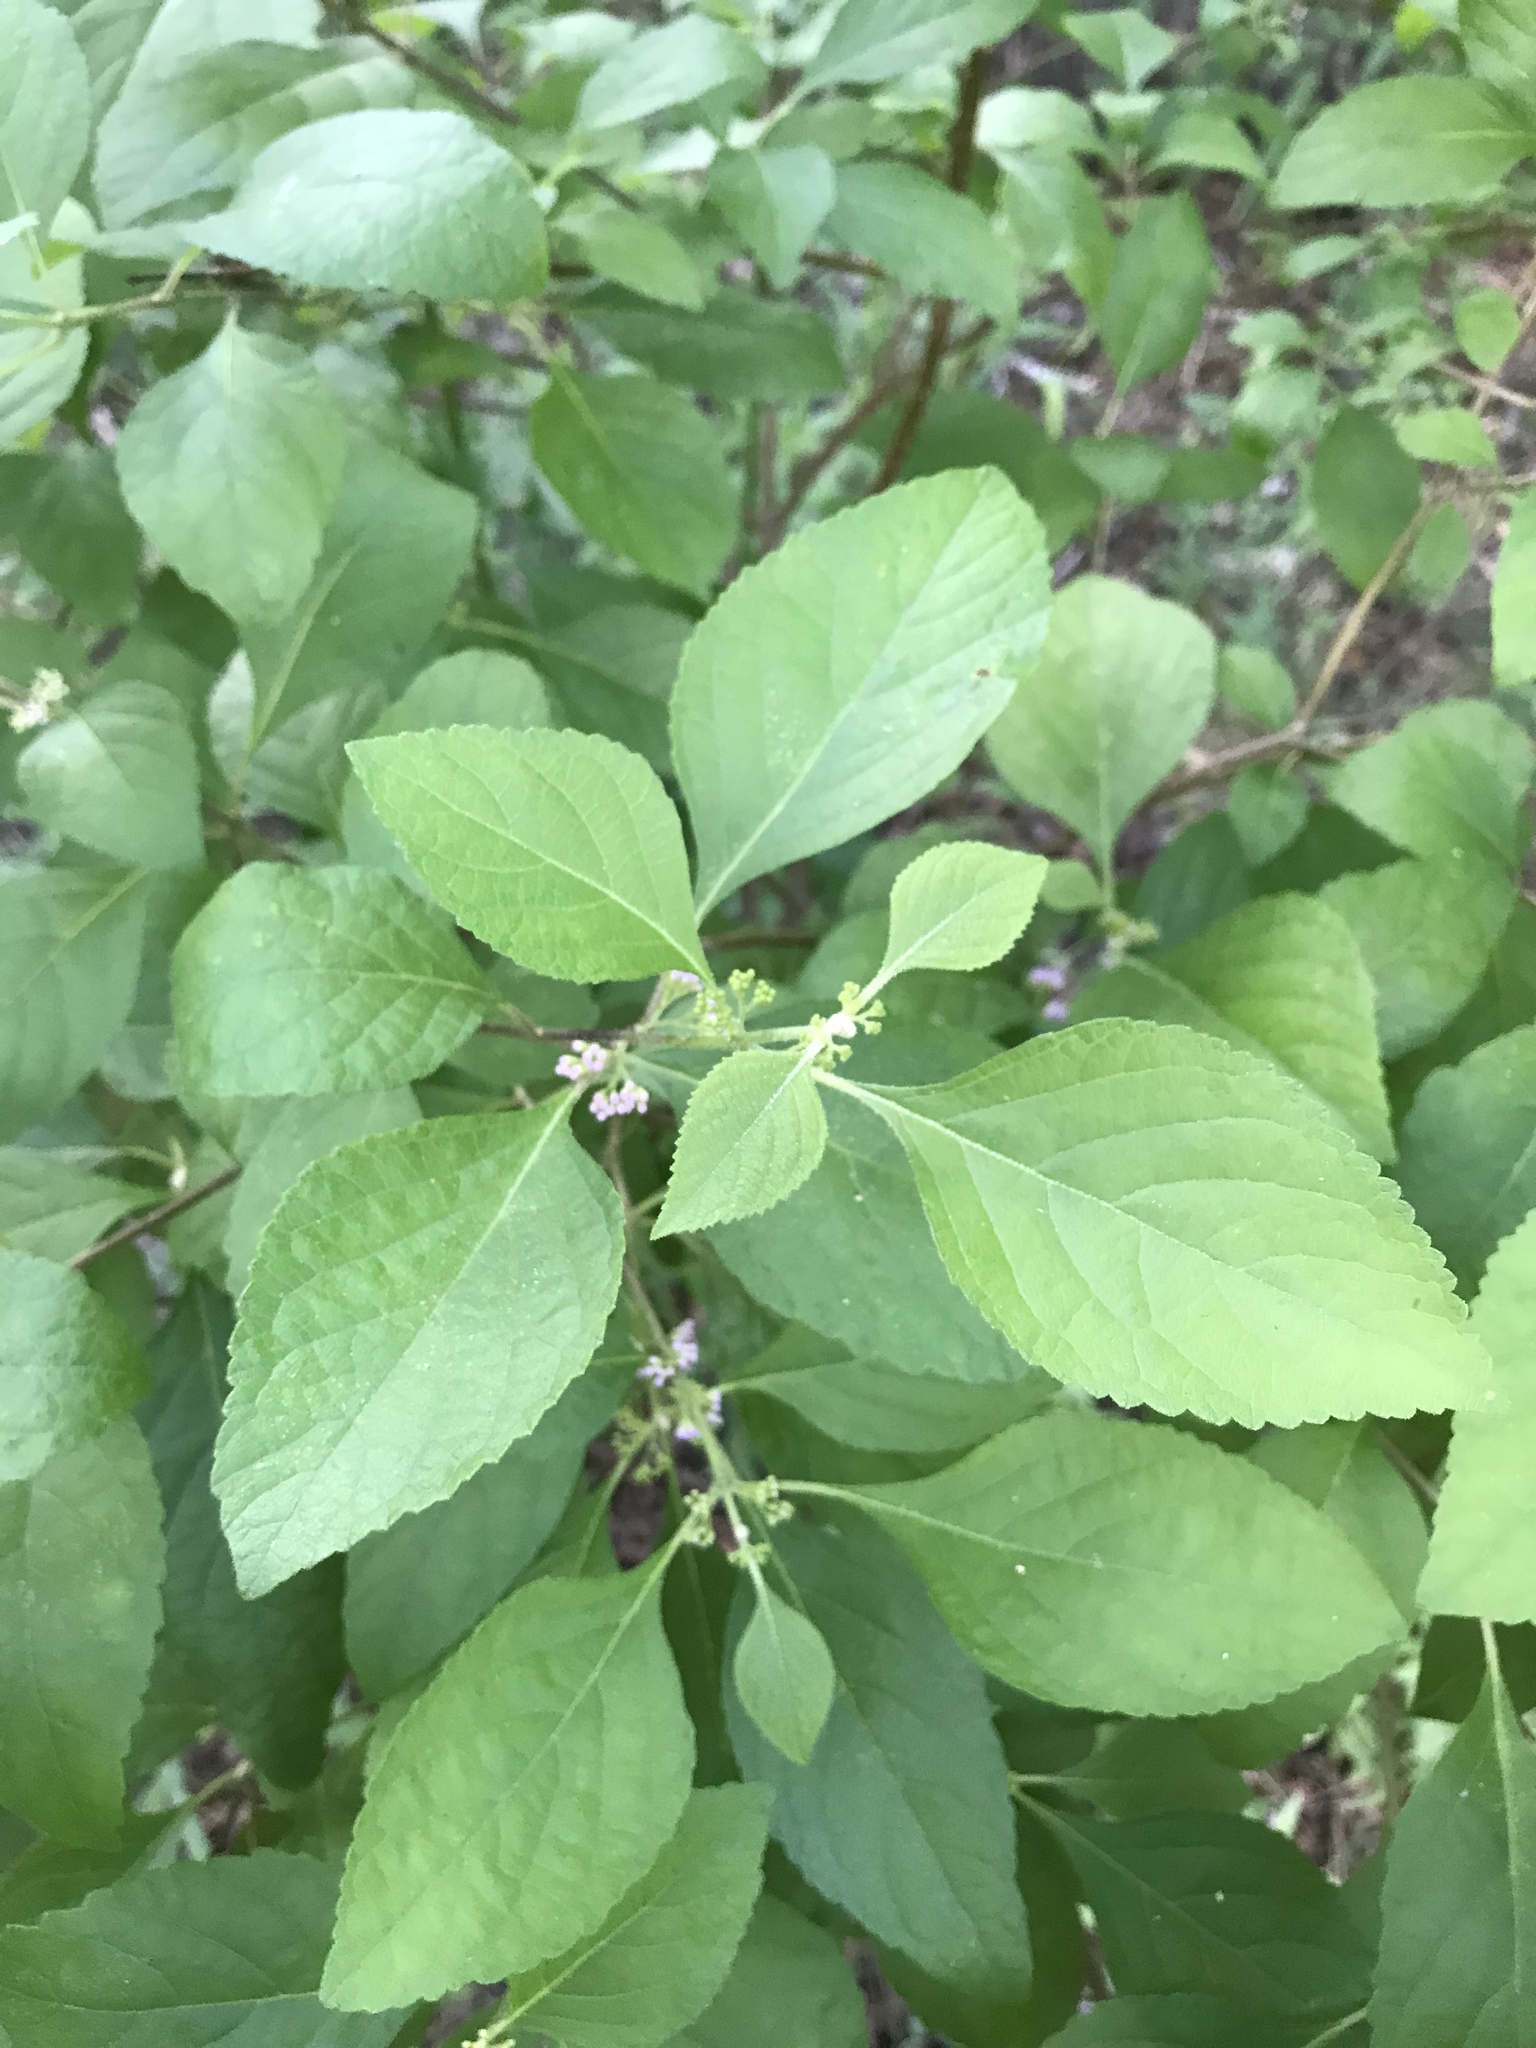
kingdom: Plantae
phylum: Tracheophyta
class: Magnoliopsida
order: Lamiales
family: Lamiaceae
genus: Callicarpa
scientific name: Callicarpa americana
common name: American beautyberry
